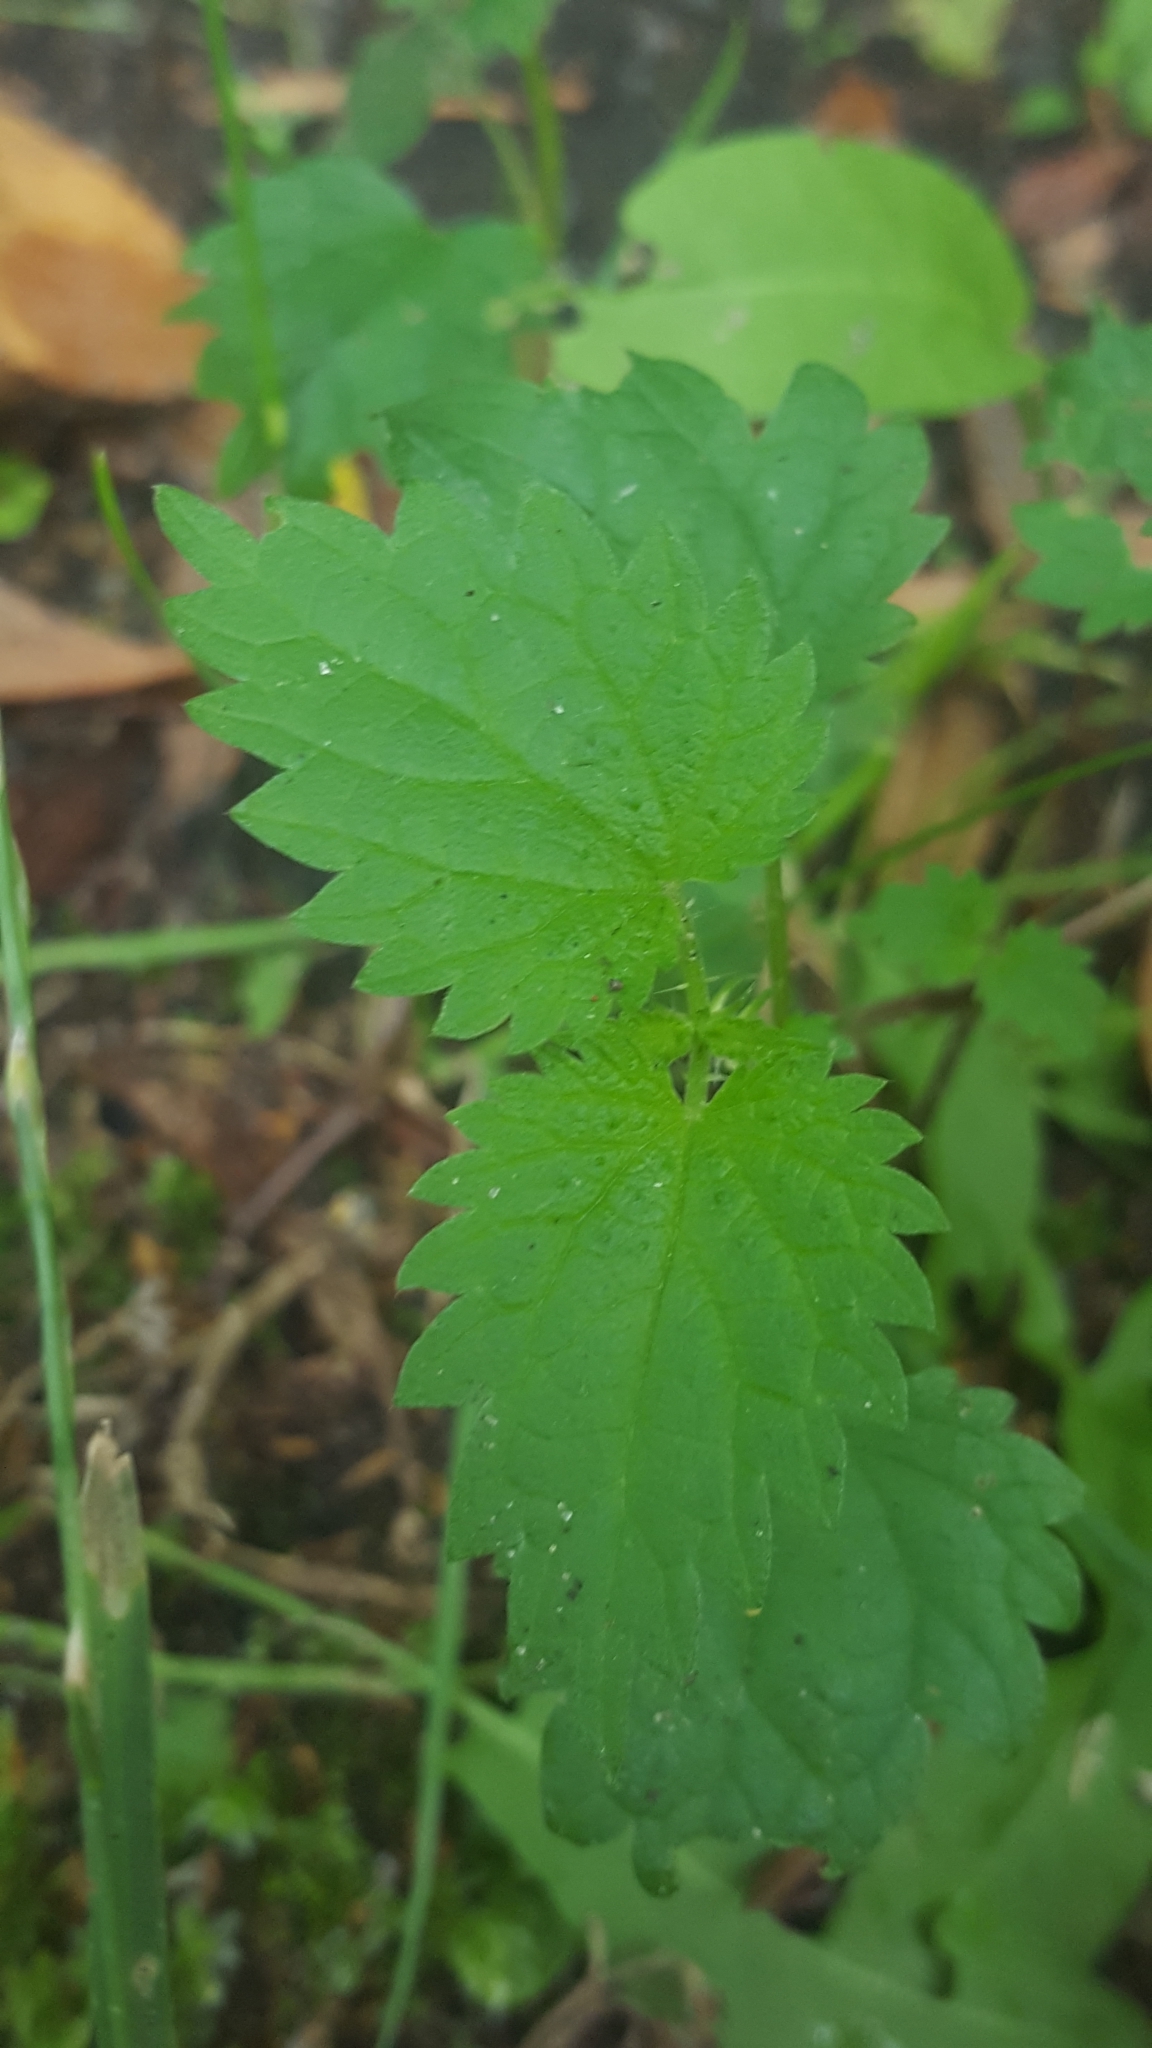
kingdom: Plantae
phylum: Tracheophyta
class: Magnoliopsida
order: Rosales
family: Urticaceae
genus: Urtica
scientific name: Urtica dioica
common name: Common nettle
